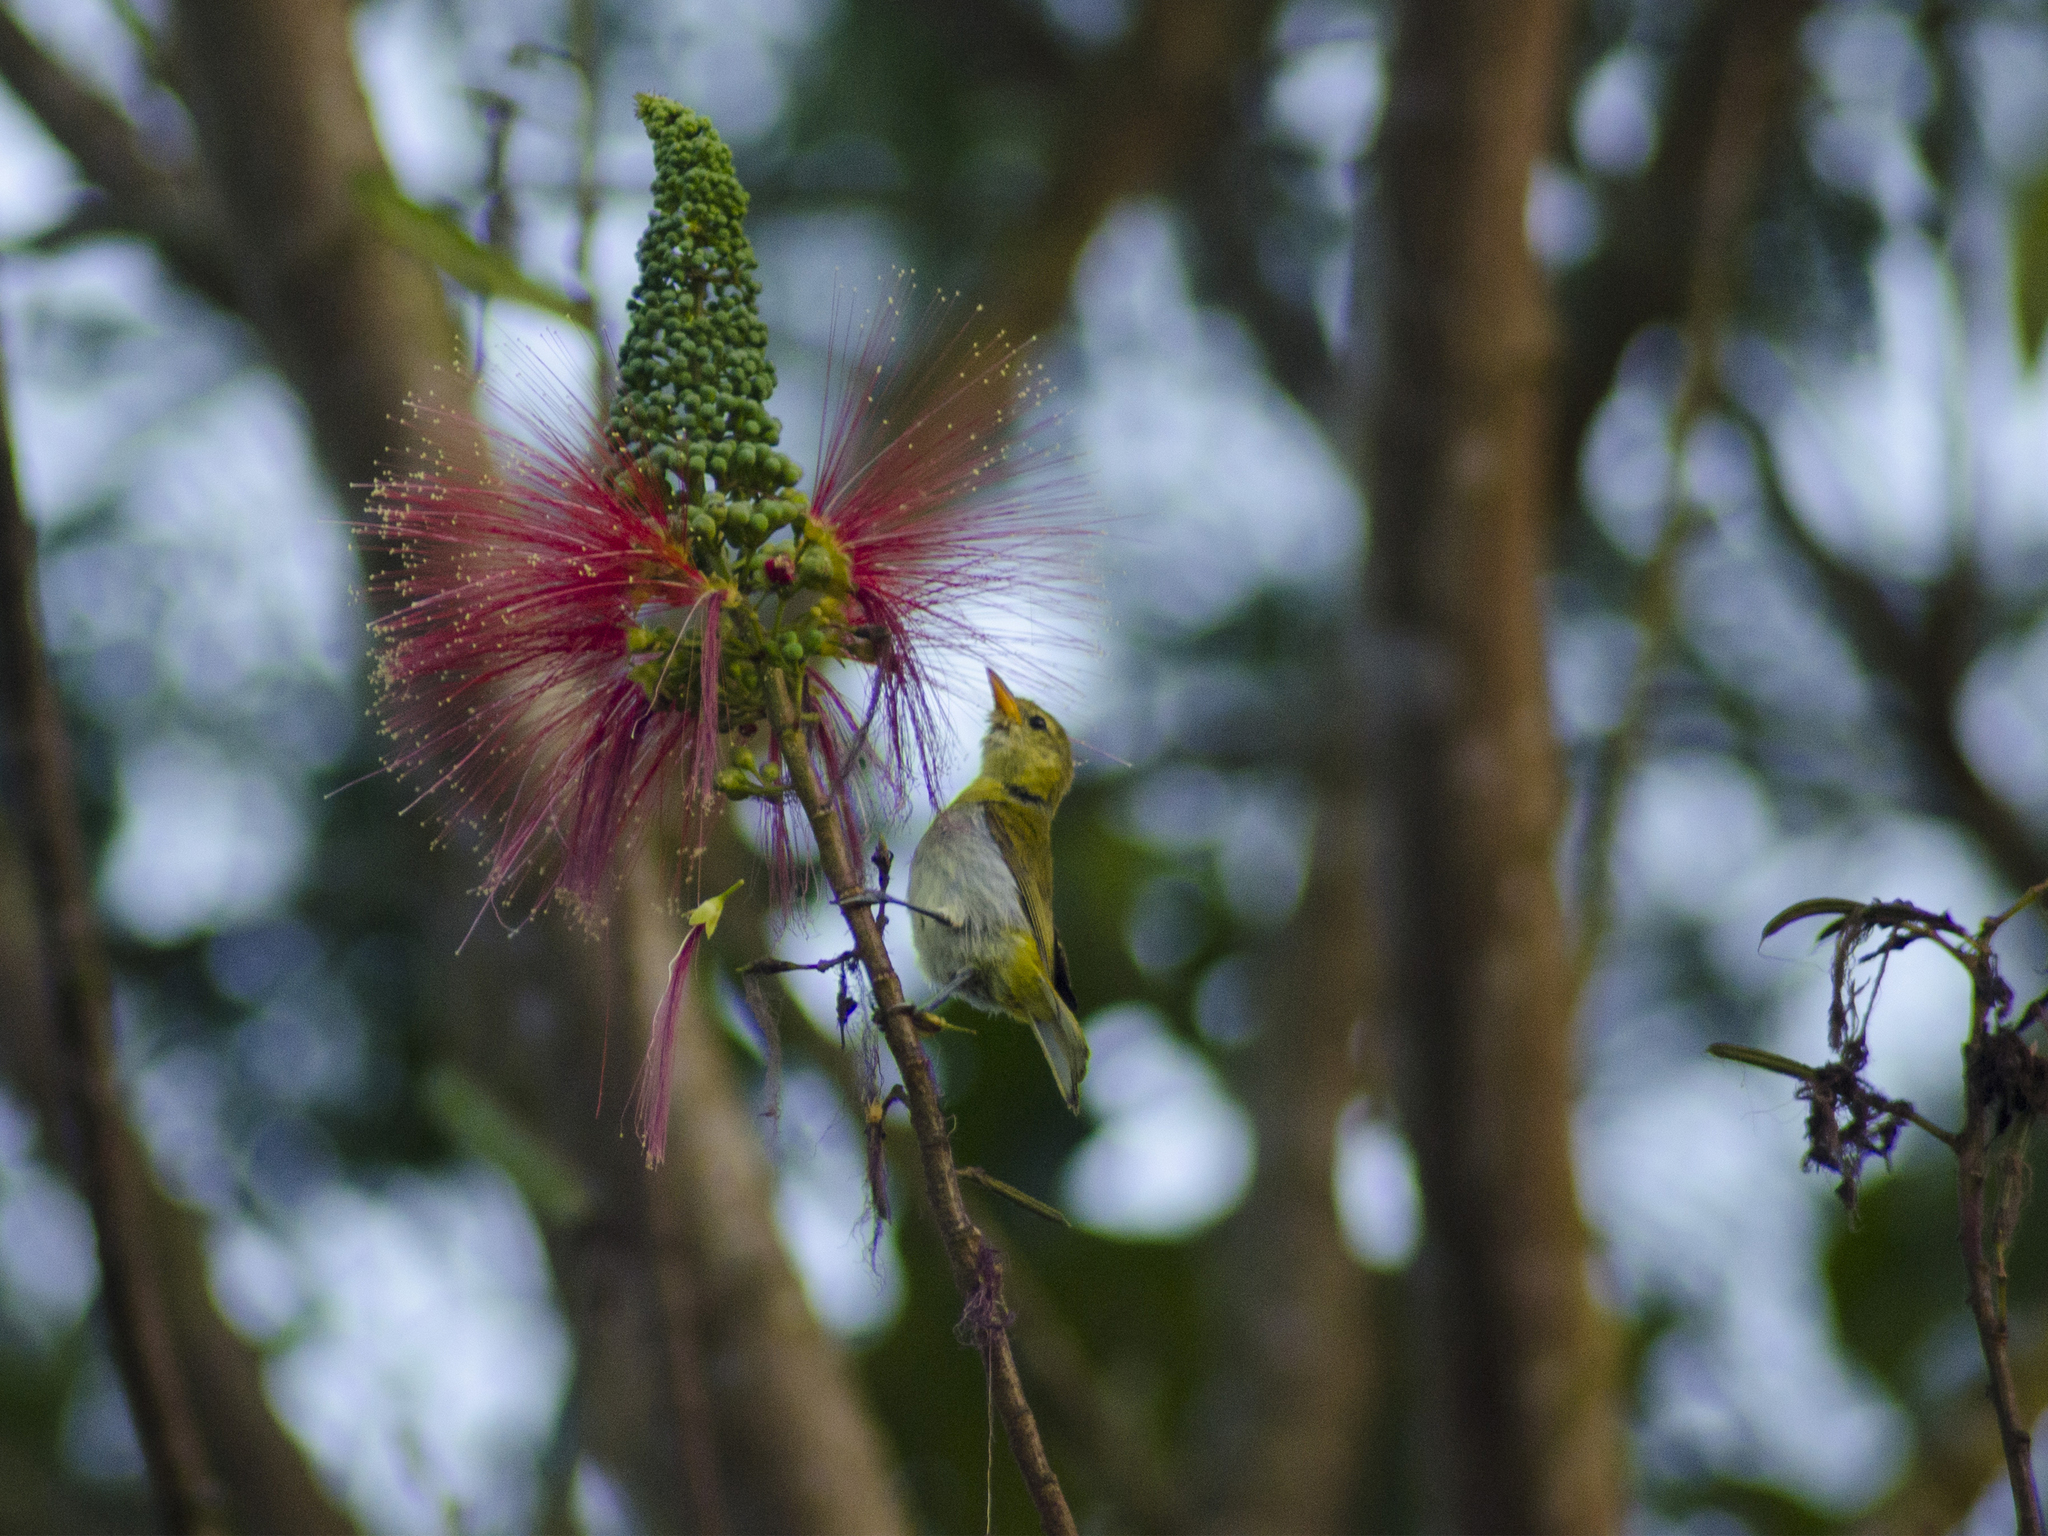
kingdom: Animalia
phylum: Chordata
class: Aves
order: Passeriformes
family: Thraupidae
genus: Hemithraupis
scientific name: Hemithraupis guira
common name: Guira tanager
